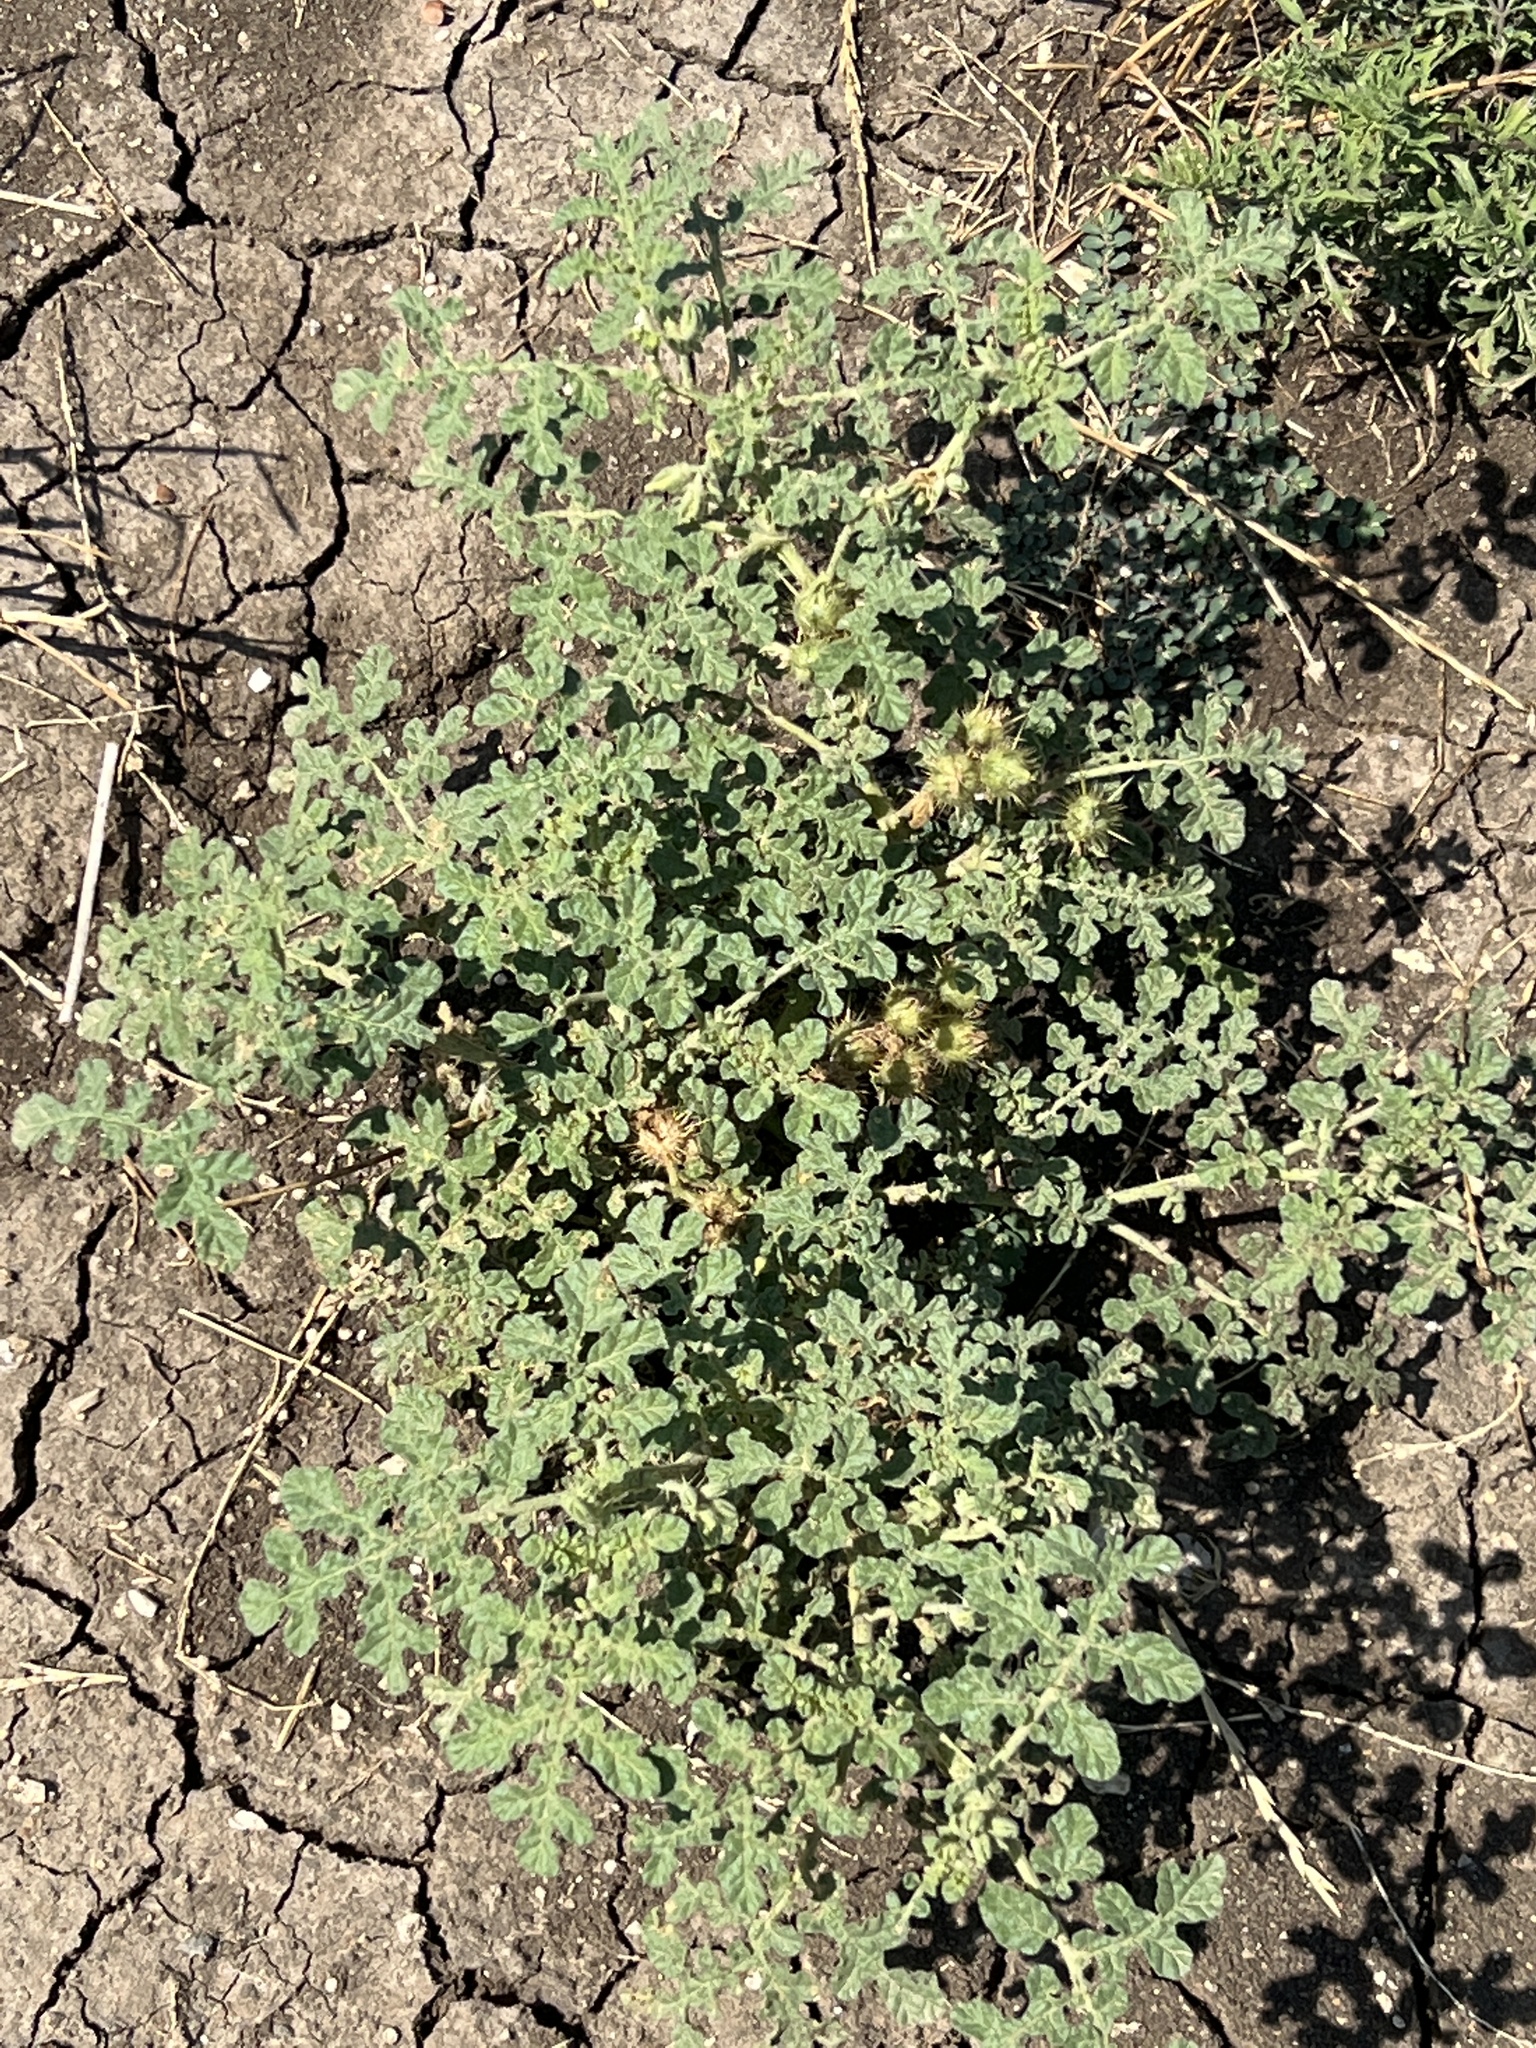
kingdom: Plantae
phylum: Tracheophyta
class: Magnoliopsida
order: Solanales
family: Solanaceae
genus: Solanum
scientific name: Solanum angustifolium
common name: Buffalobur nightshade
